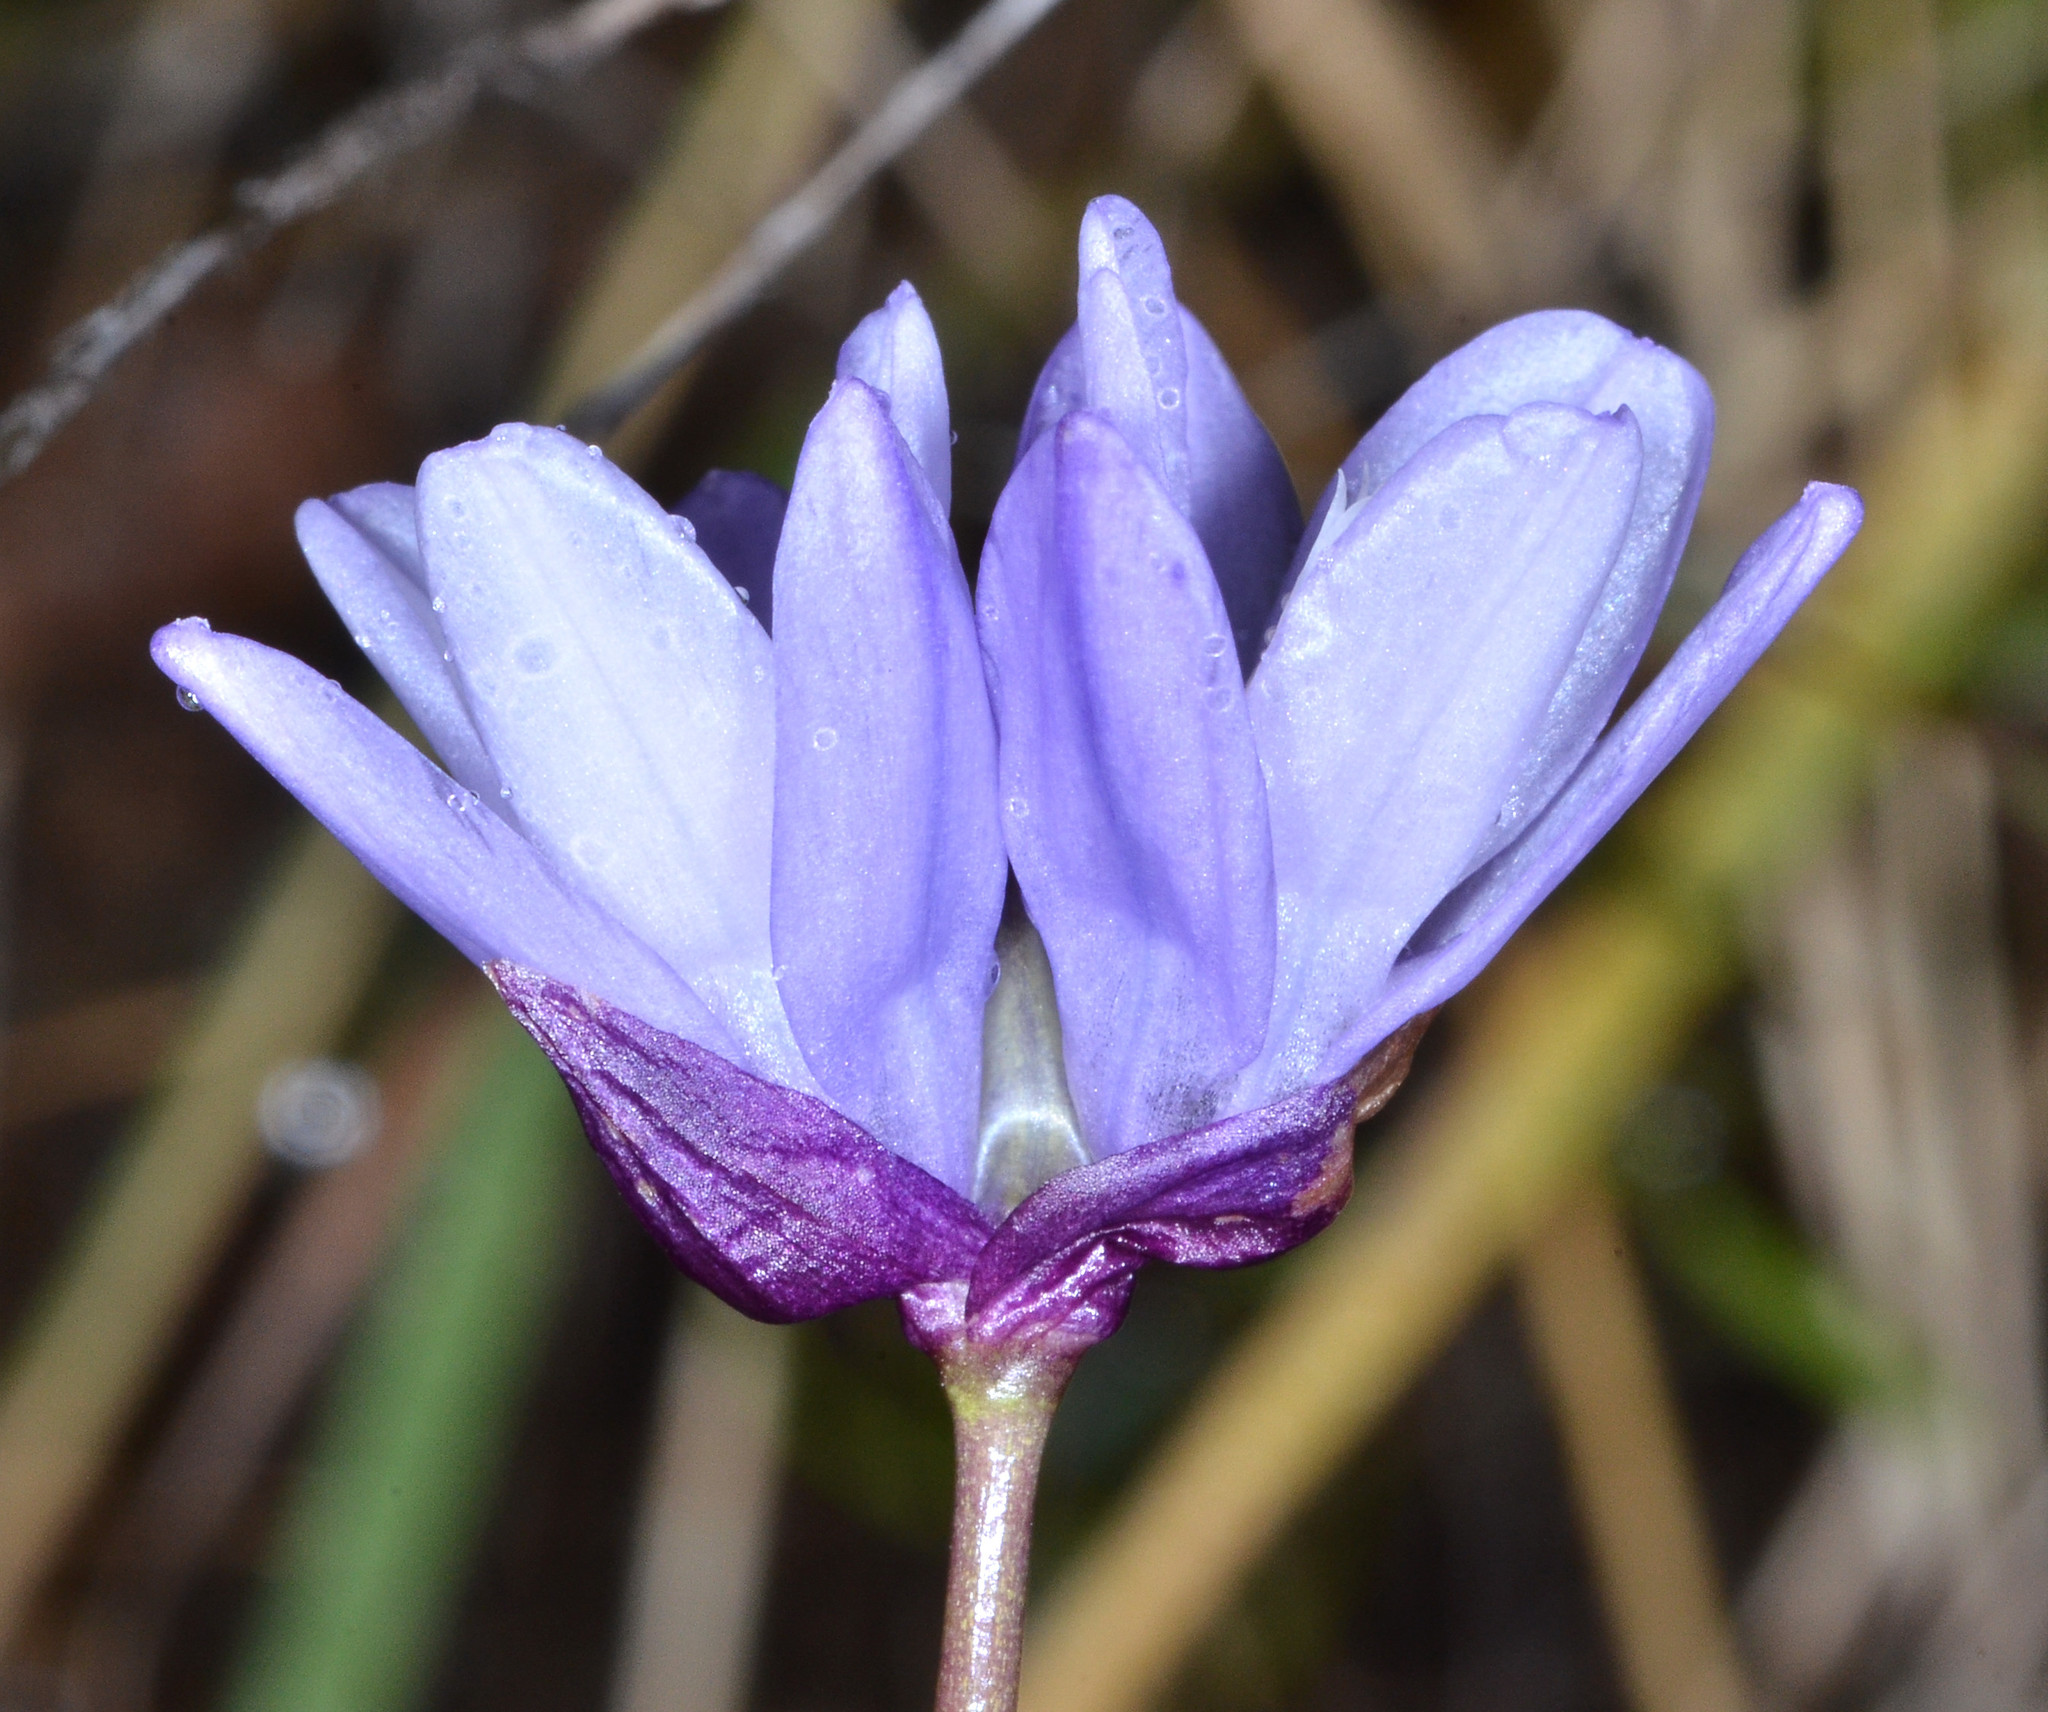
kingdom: Plantae
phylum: Tracheophyta
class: Liliopsida
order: Asparagales
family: Asparagaceae
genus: Dipterostemon
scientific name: Dipterostemon capitatus
